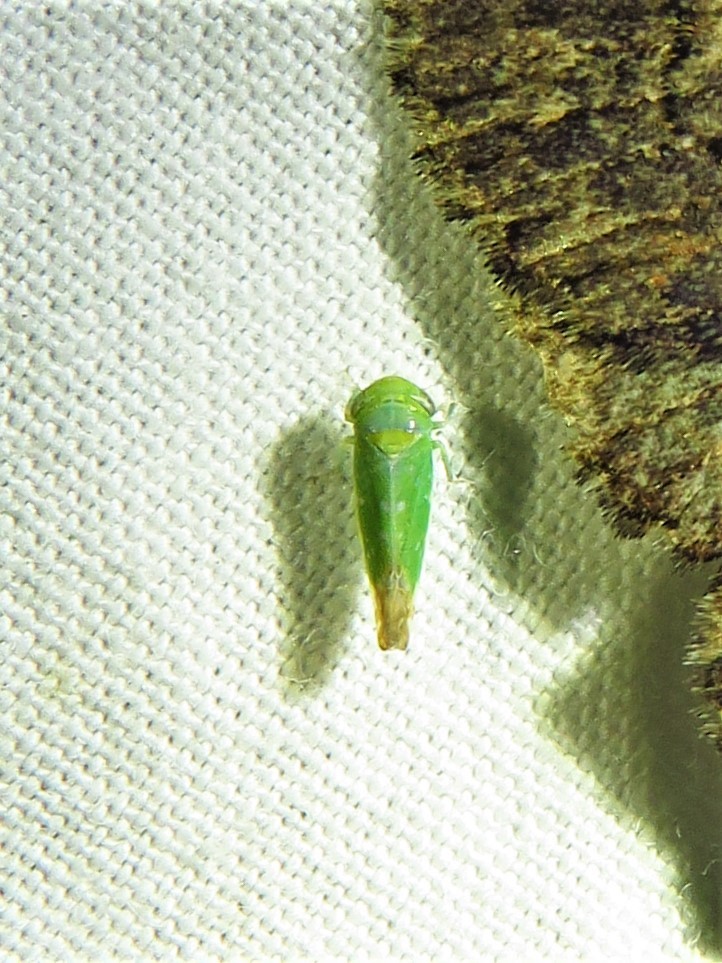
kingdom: Animalia
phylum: Arthropoda
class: Insecta
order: Hemiptera
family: Cicadellidae
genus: Opsius
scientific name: Opsius stactogalus
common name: Leafhopper
